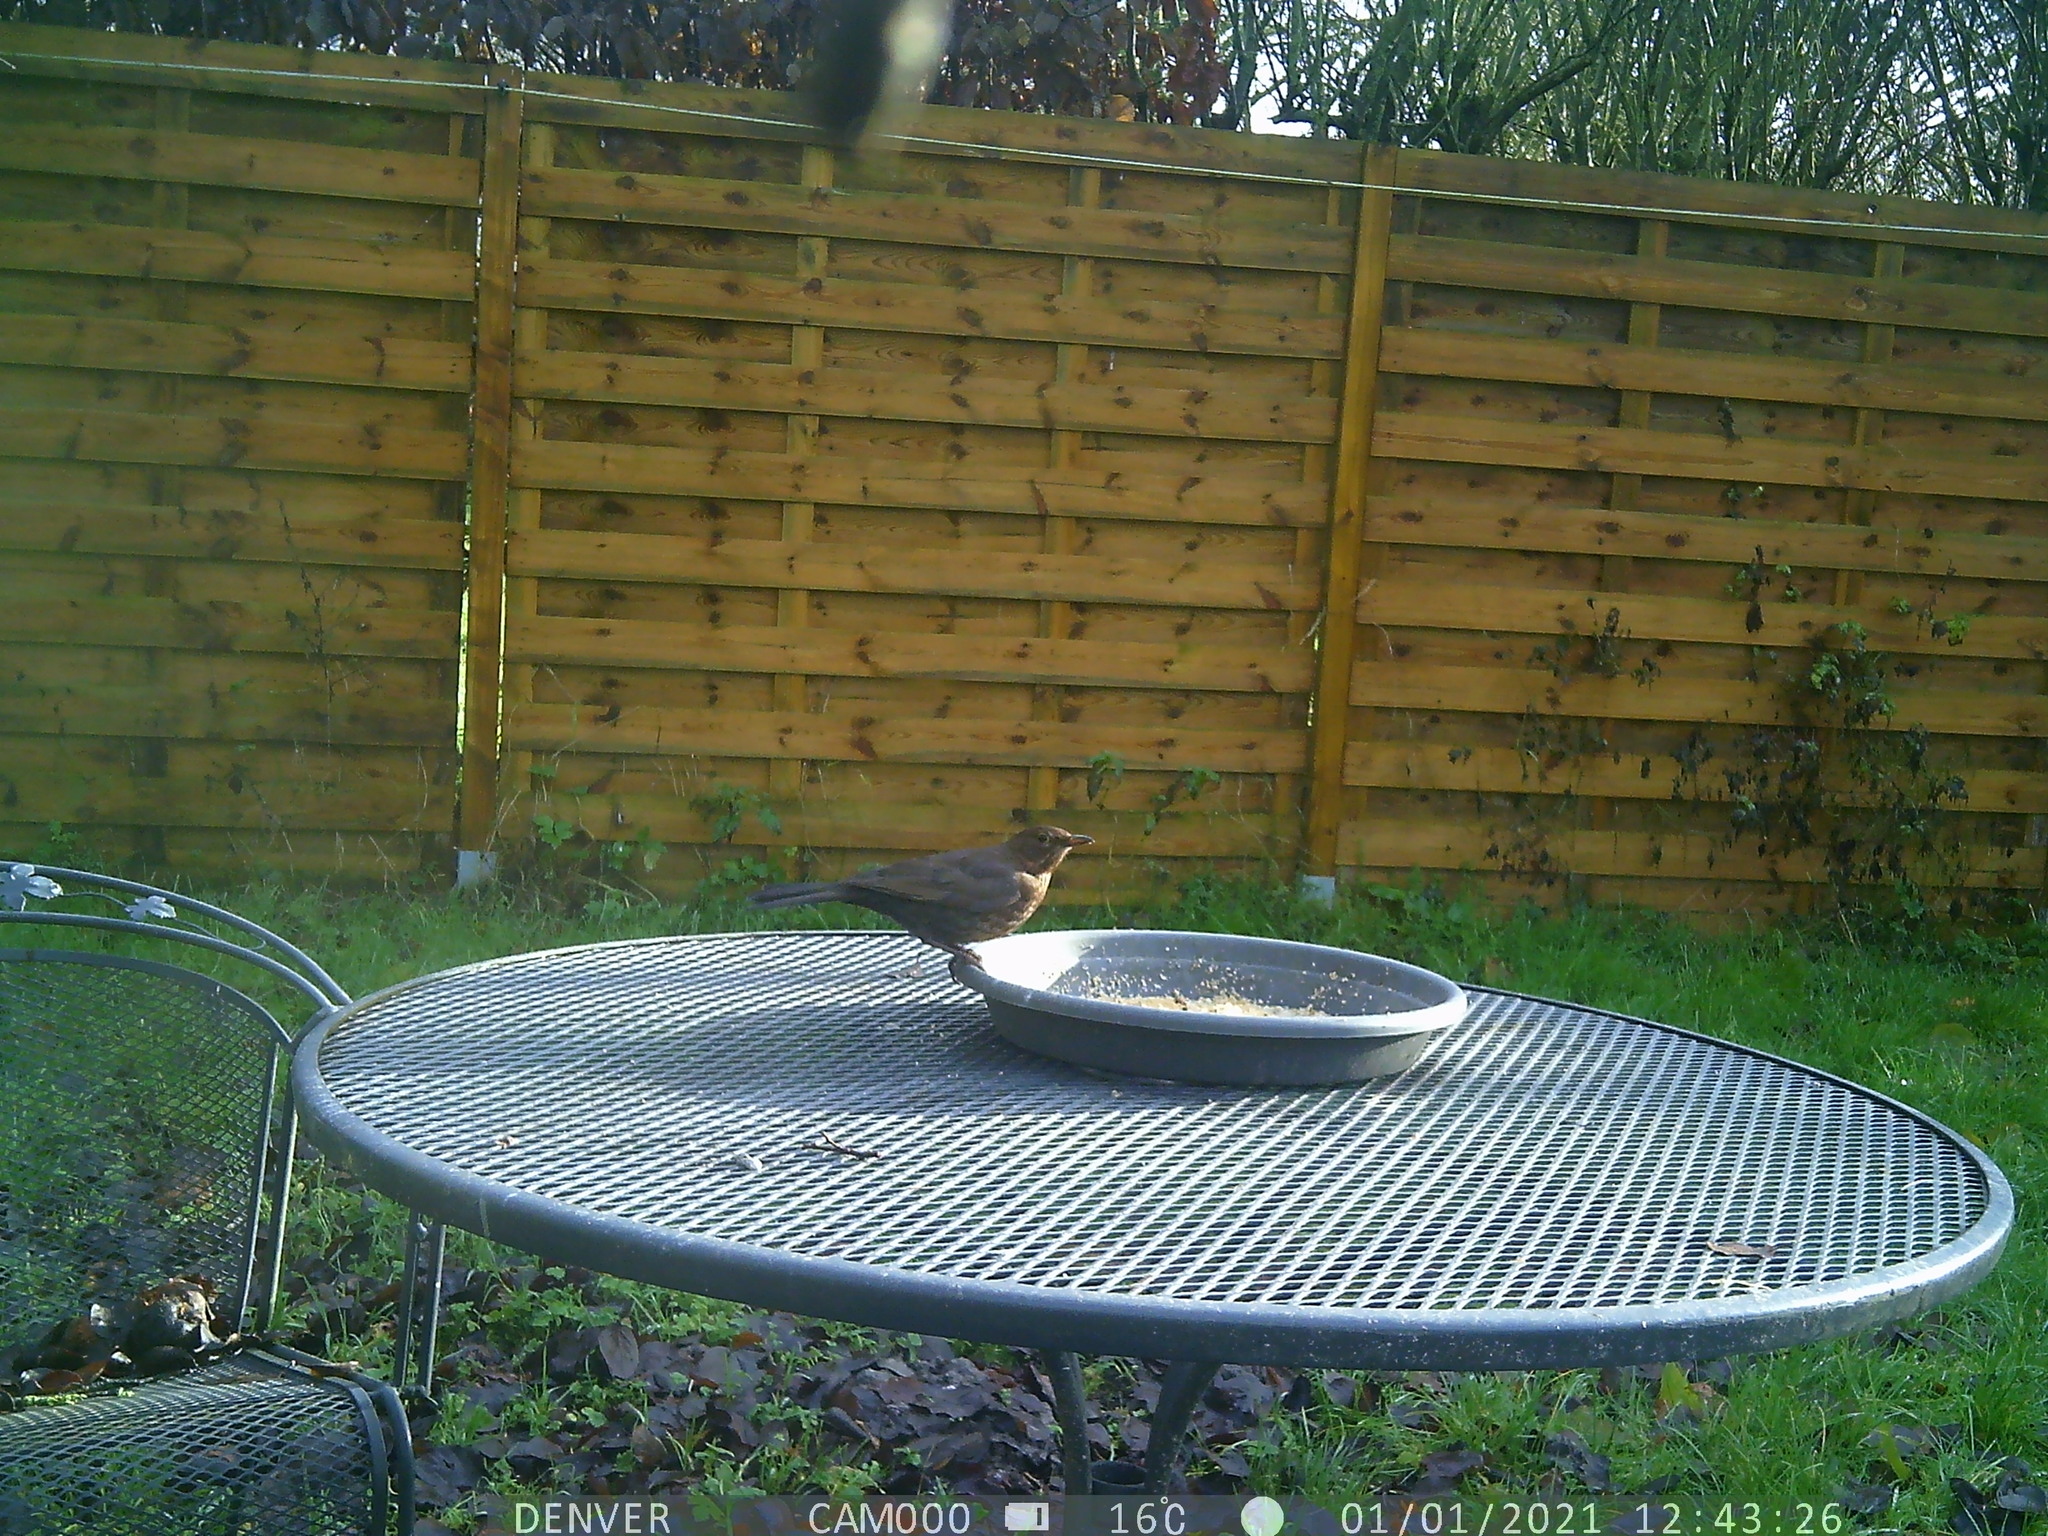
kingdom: Animalia
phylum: Chordata
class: Aves
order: Passeriformes
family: Turdidae
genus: Turdus
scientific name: Turdus merula
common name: Common blackbird
